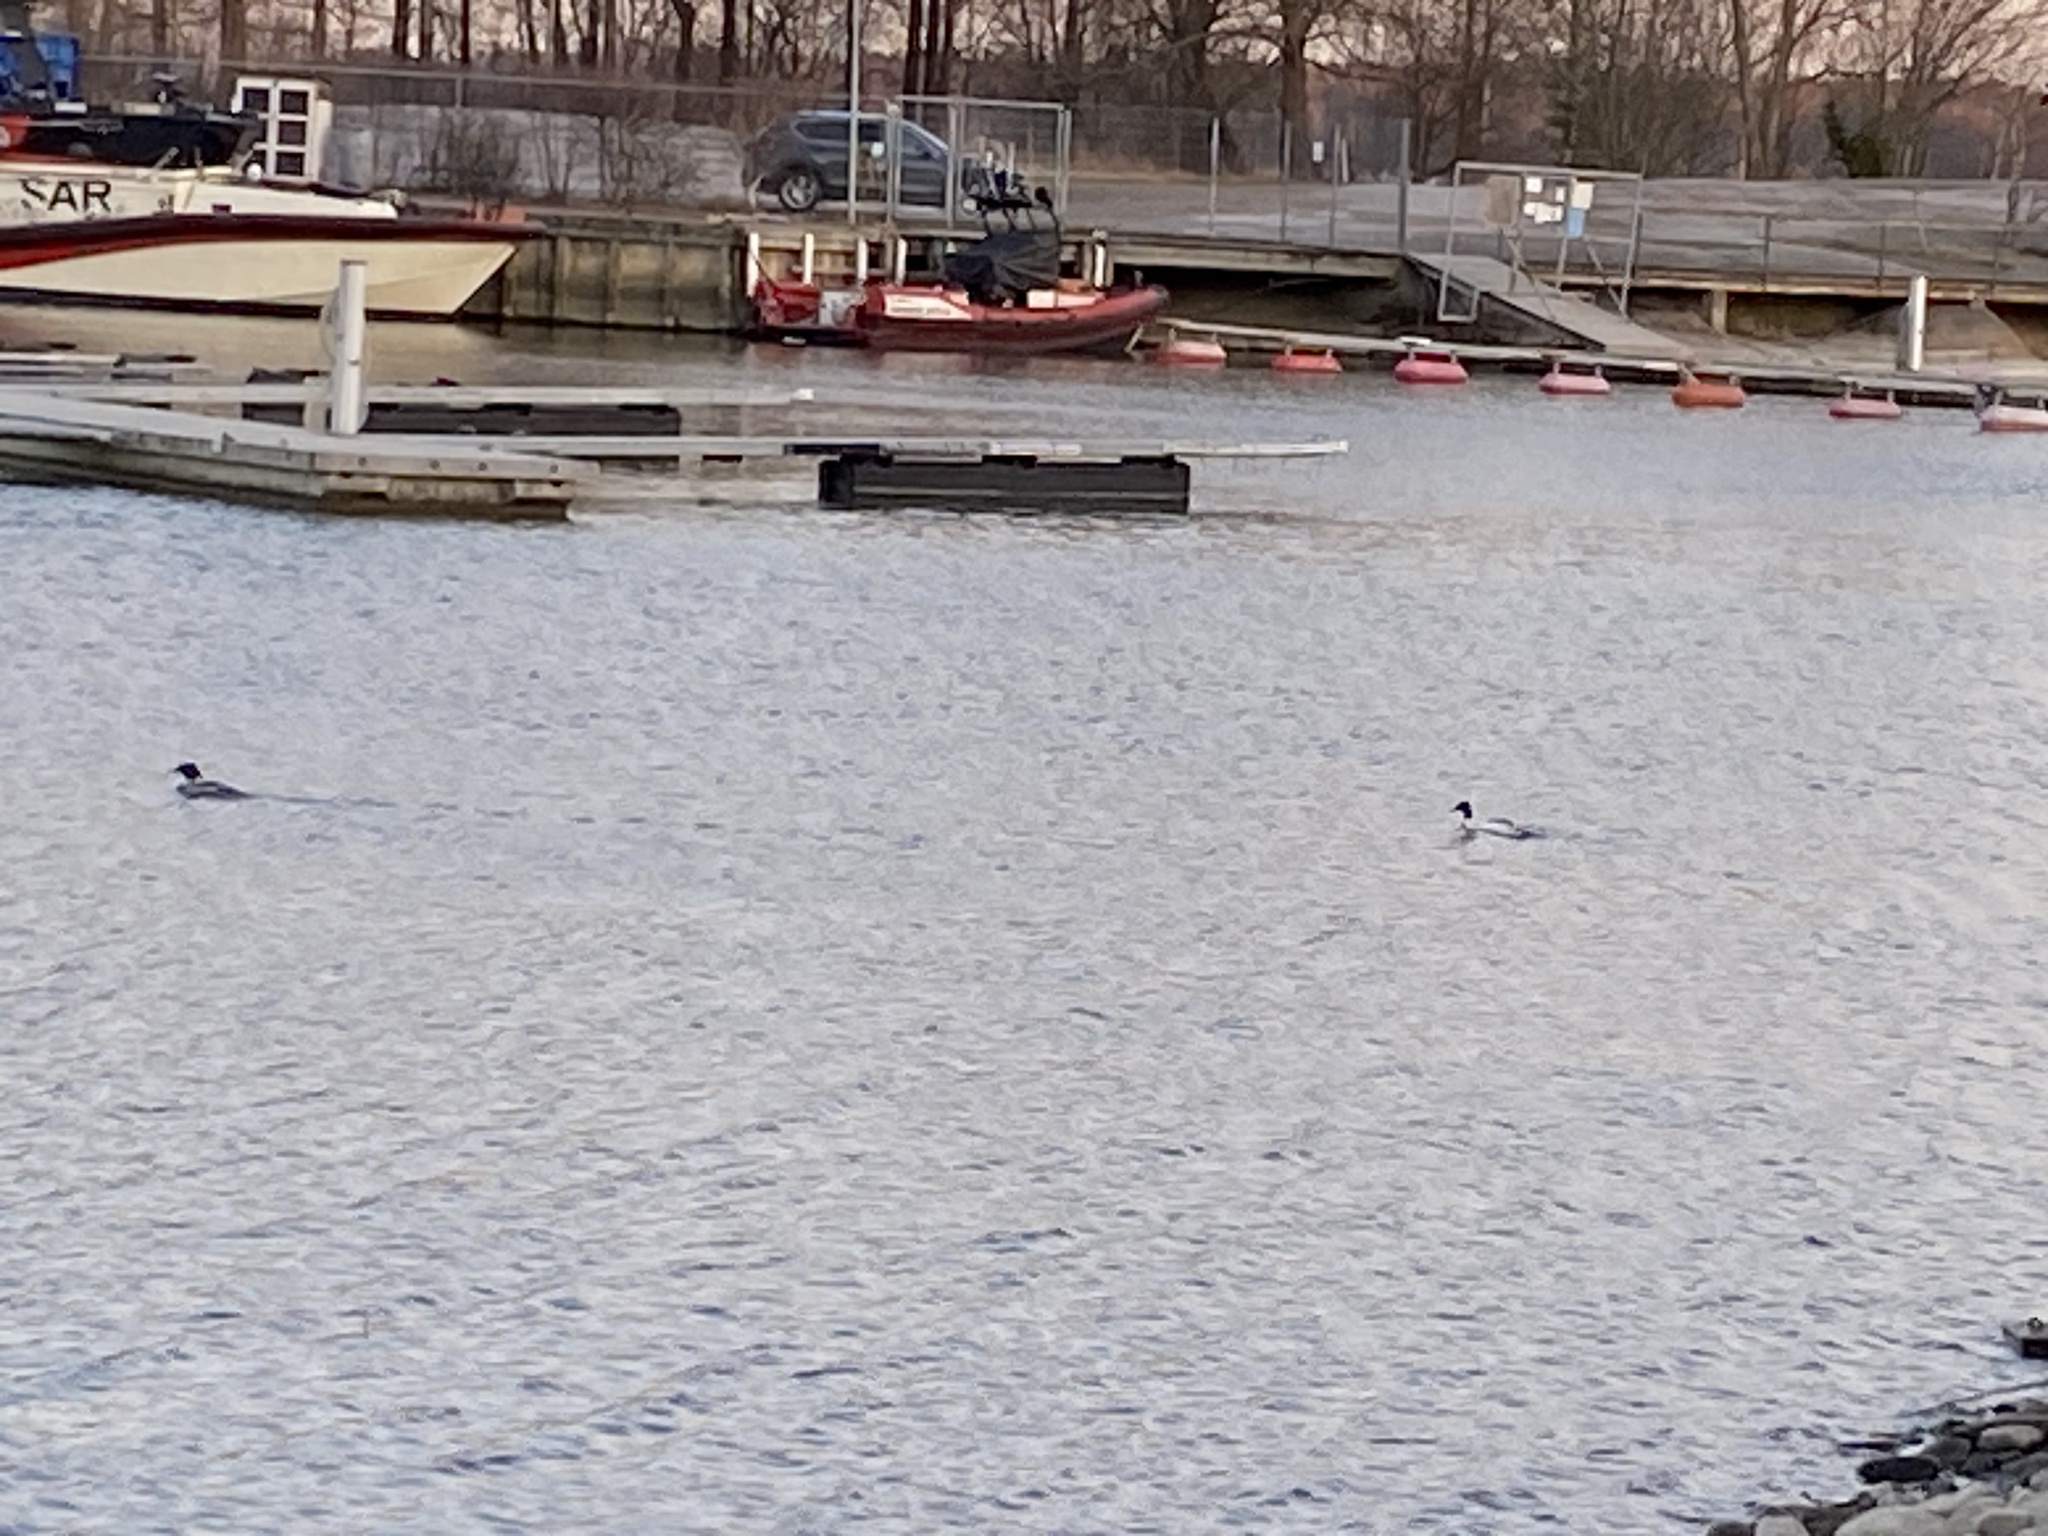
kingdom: Animalia
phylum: Chordata
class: Aves
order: Anseriformes
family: Anatidae
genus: Mergus
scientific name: Mergus merganser
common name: Common merganser
